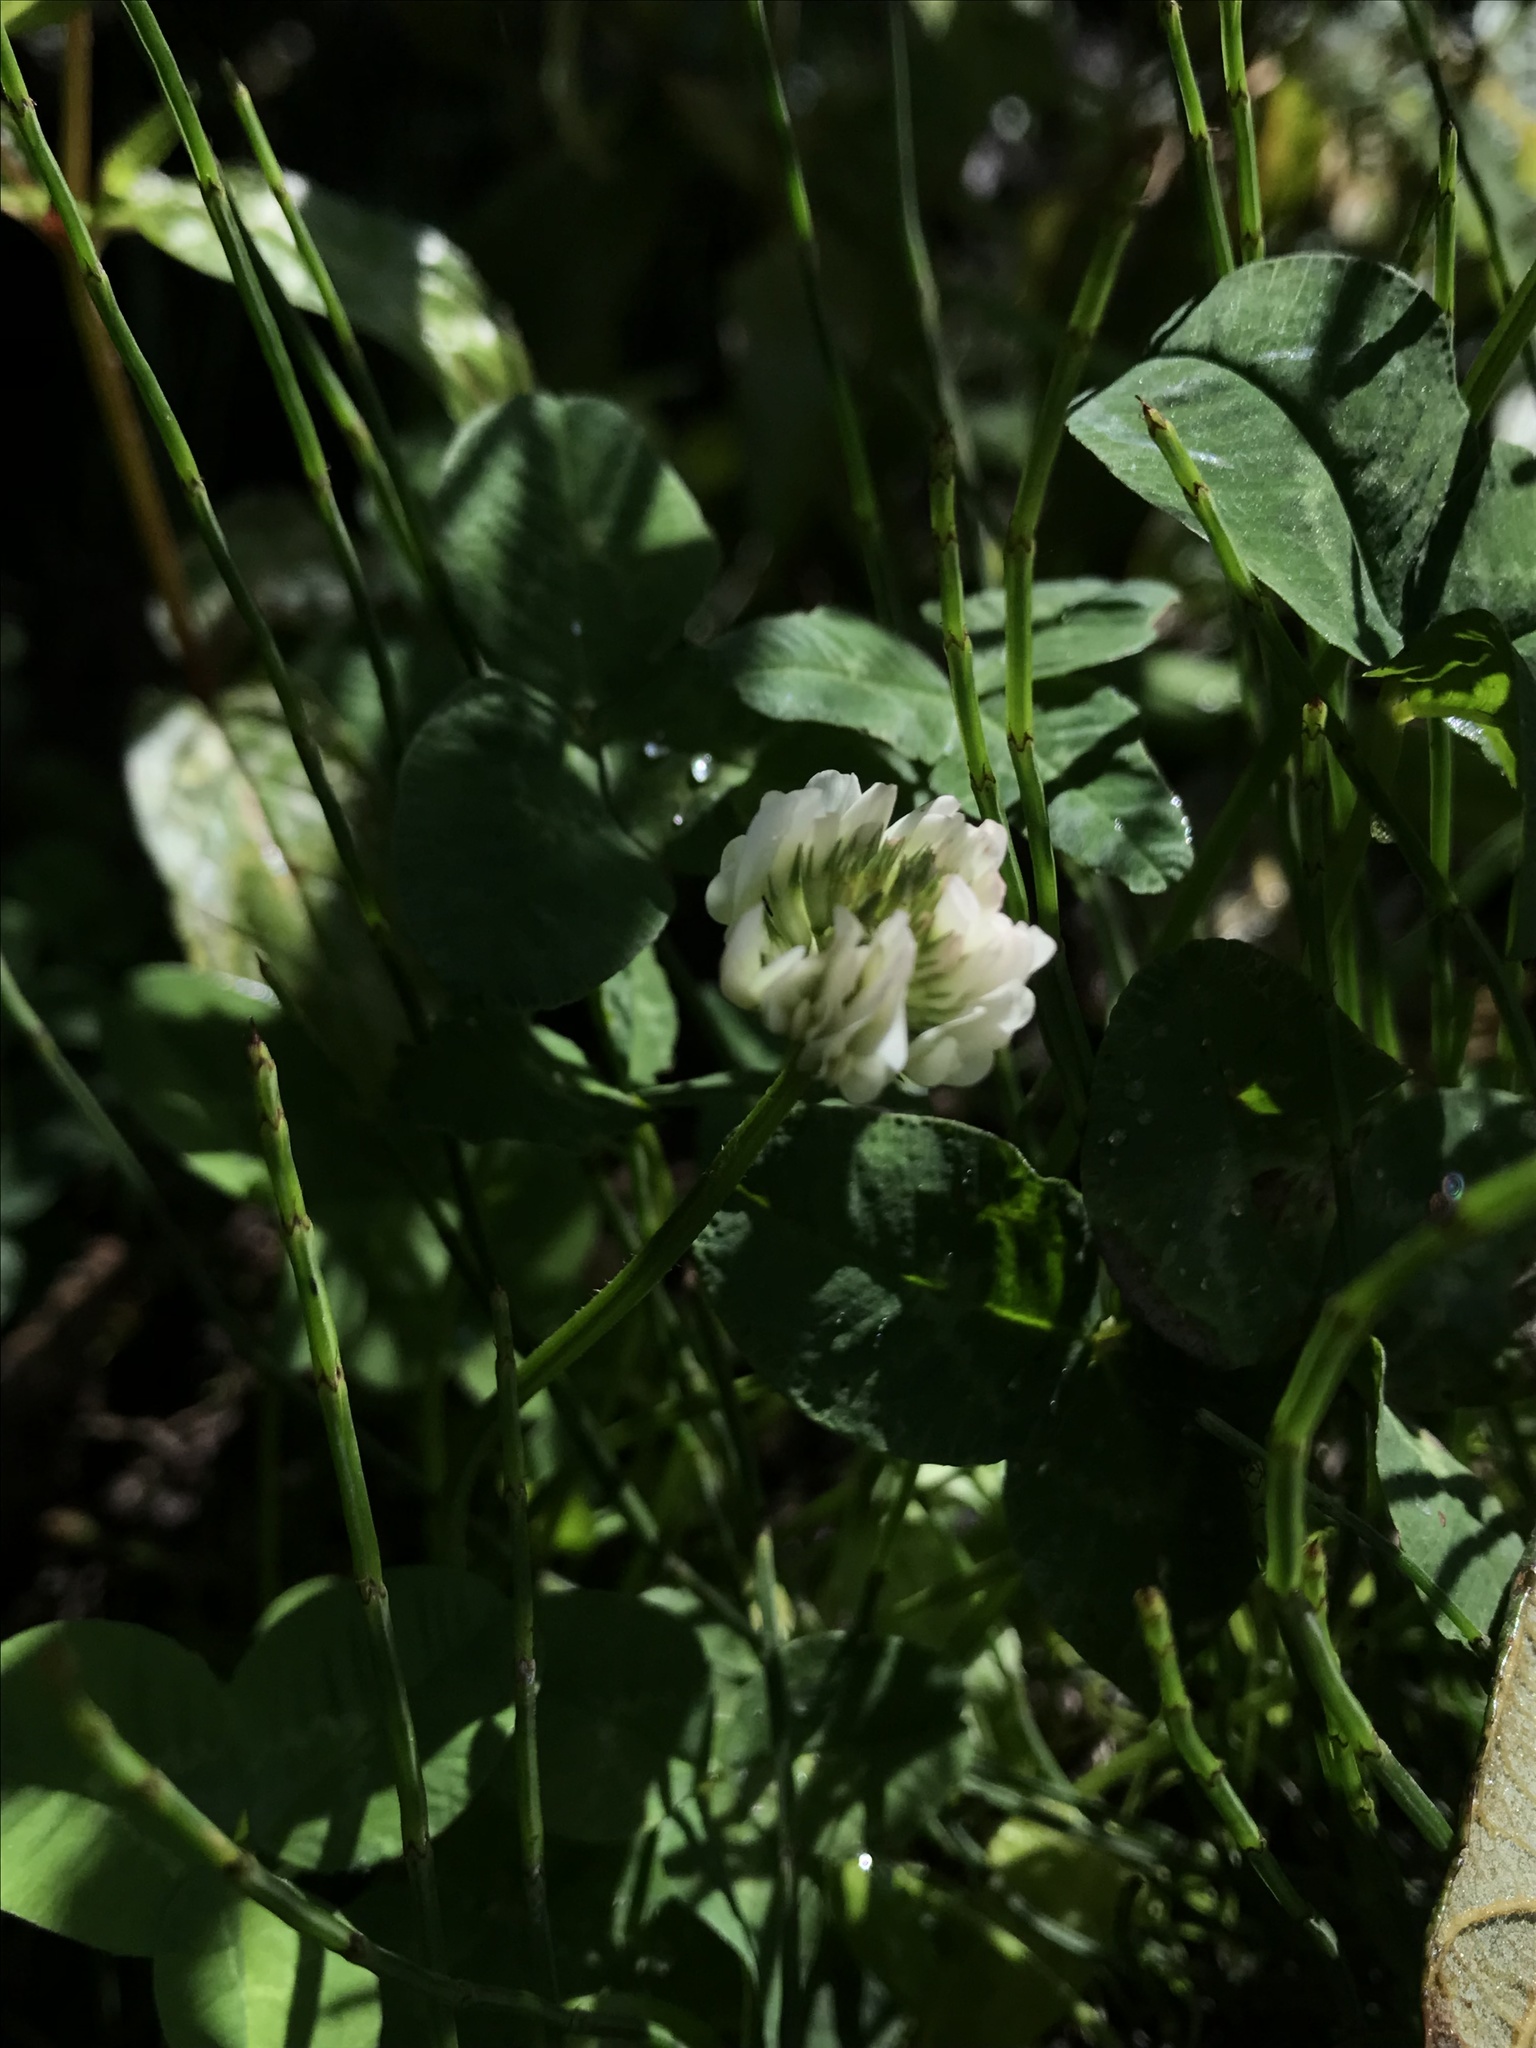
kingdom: Plantae
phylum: Tracheophyta
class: Magnoliopsida
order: Fabales
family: Fabaceae
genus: Trifolium
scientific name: Trifolium repens
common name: White clover
